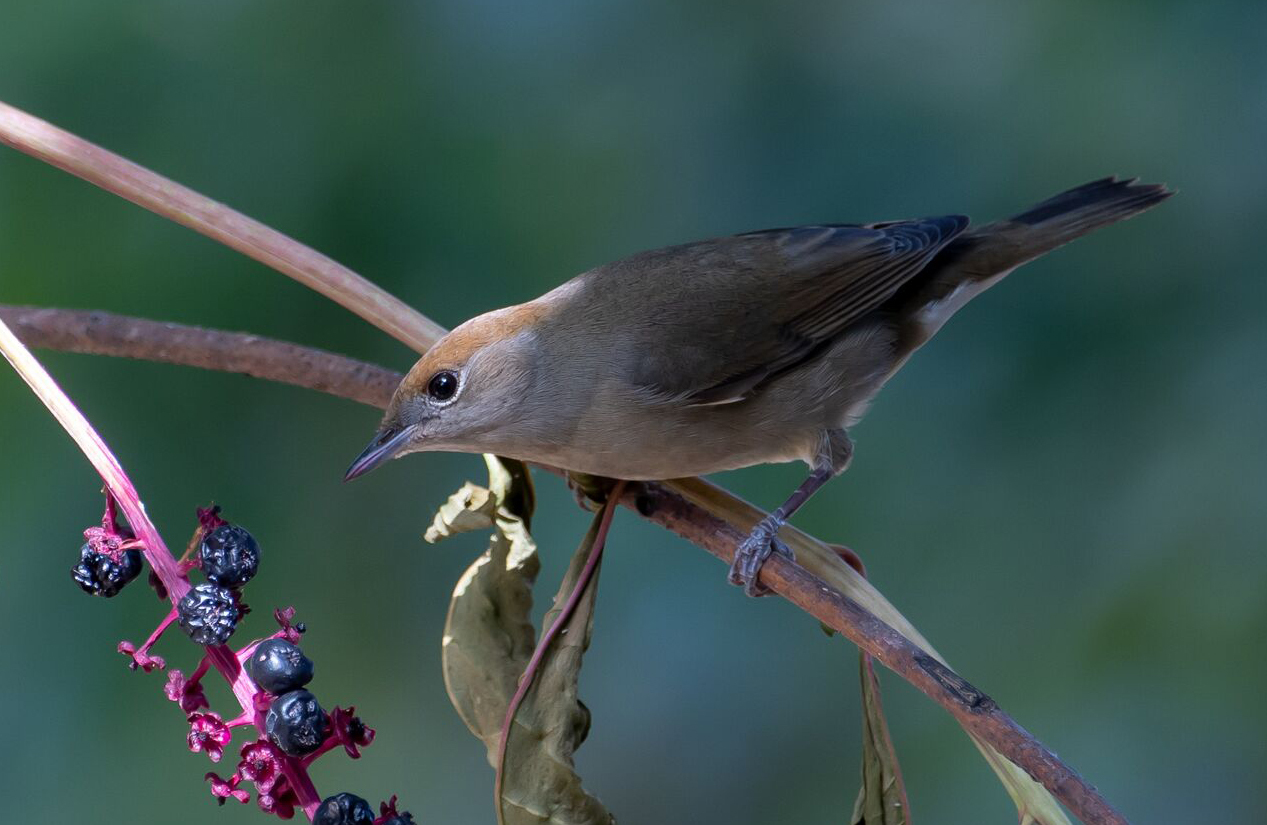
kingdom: Animalia
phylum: Chordata
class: Aves
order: Passeriformes
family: Sylviidae
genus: Sylvia
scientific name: Sylvia atricapilla
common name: Eurasian blackcap
